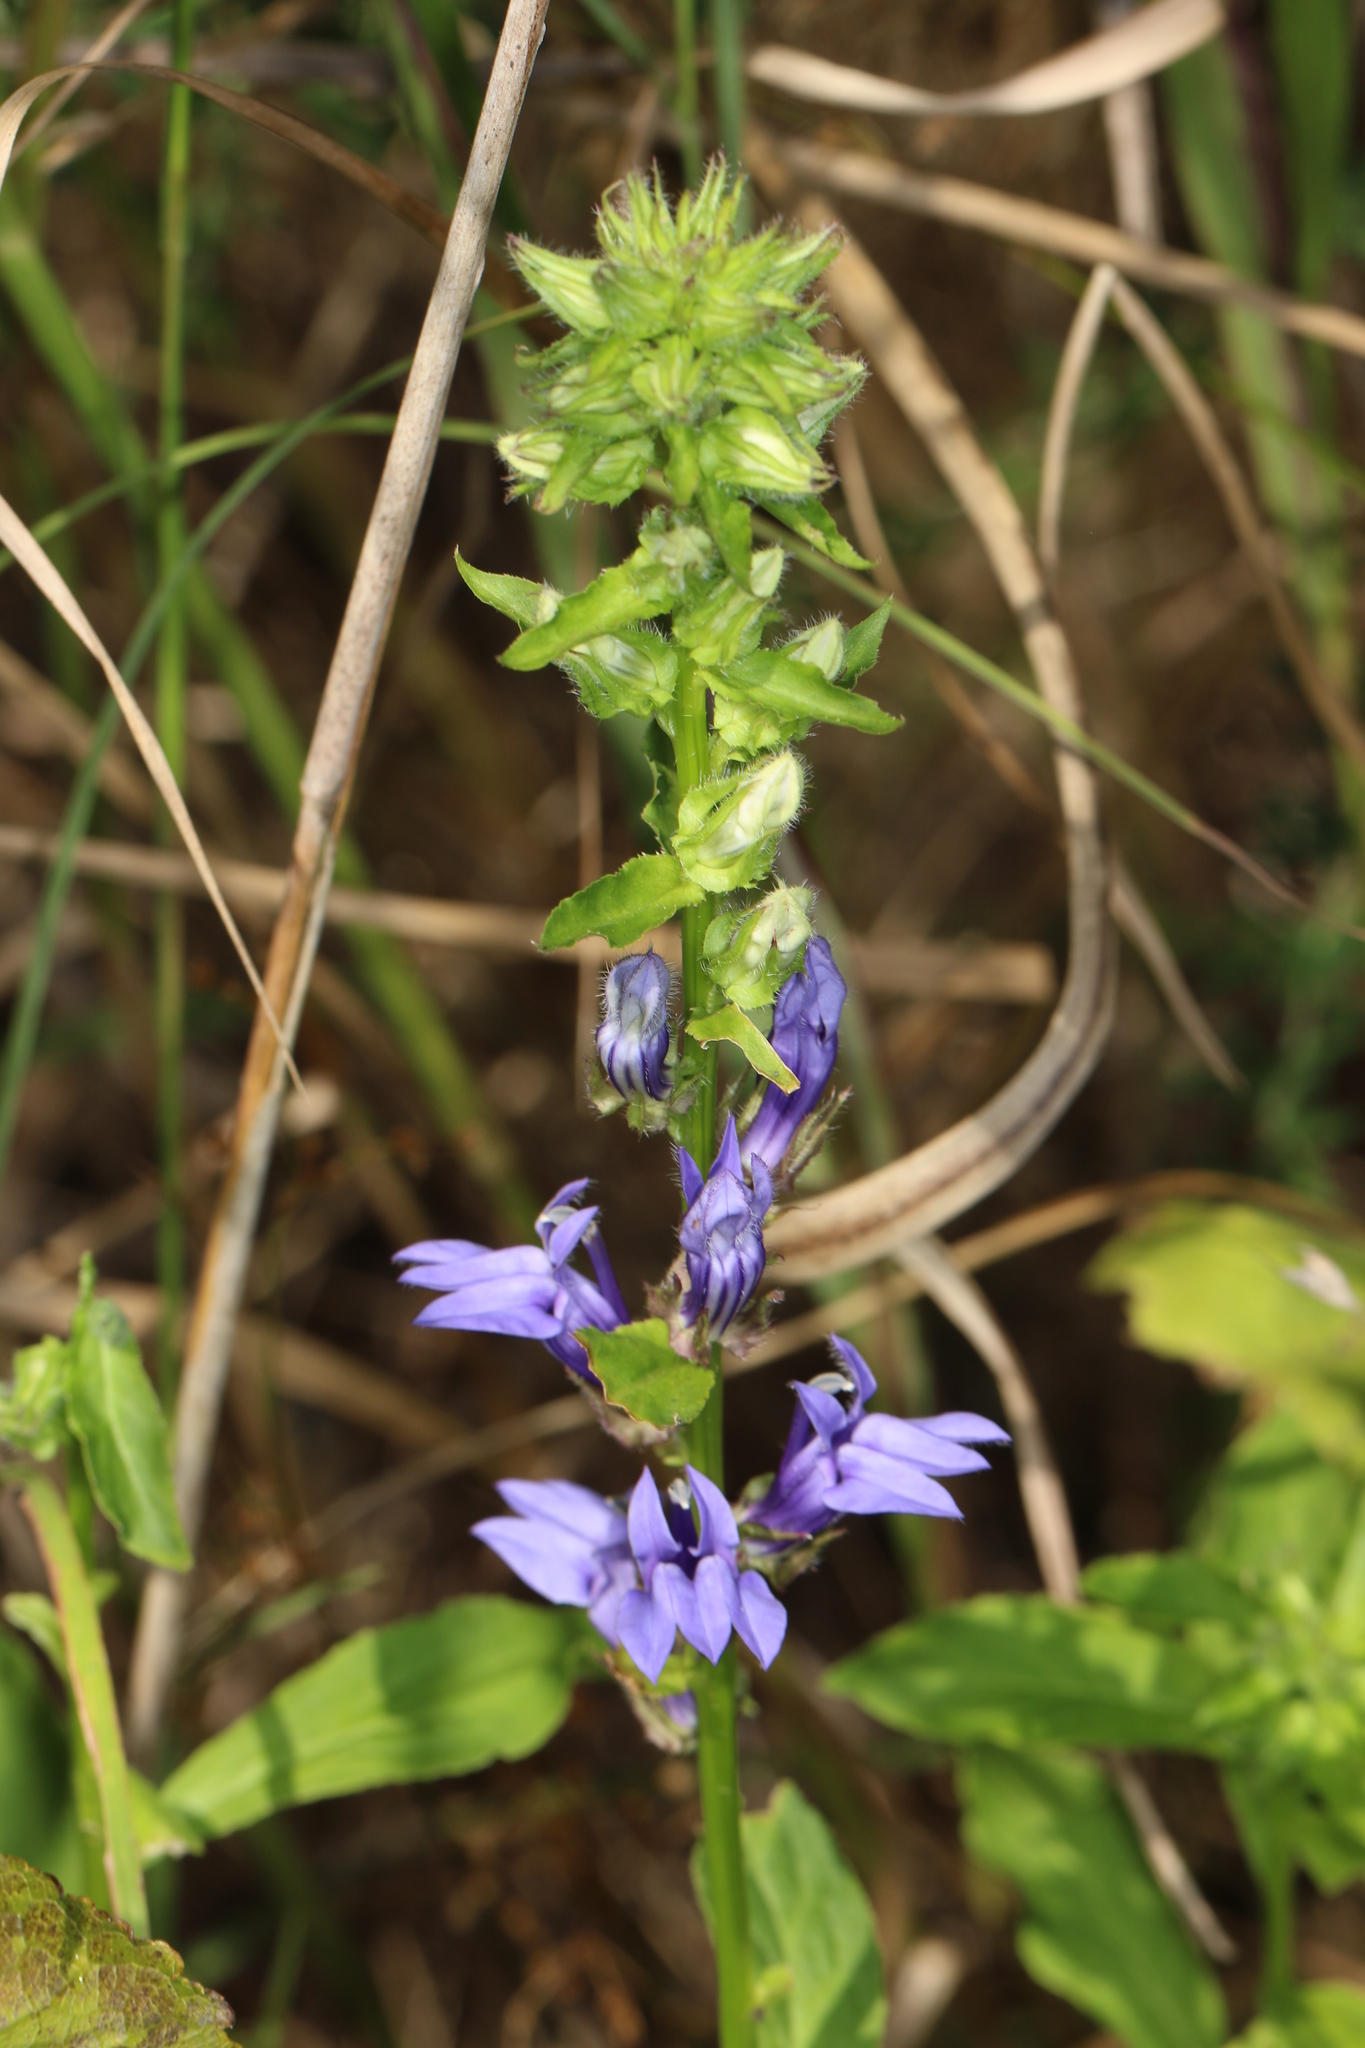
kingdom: Plantae
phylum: Tracheophyta
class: Magnoliopsida
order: Asterales
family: Campanulaceae
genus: Lobelia
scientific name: Lobelia siphilitica
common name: Great lobelia
